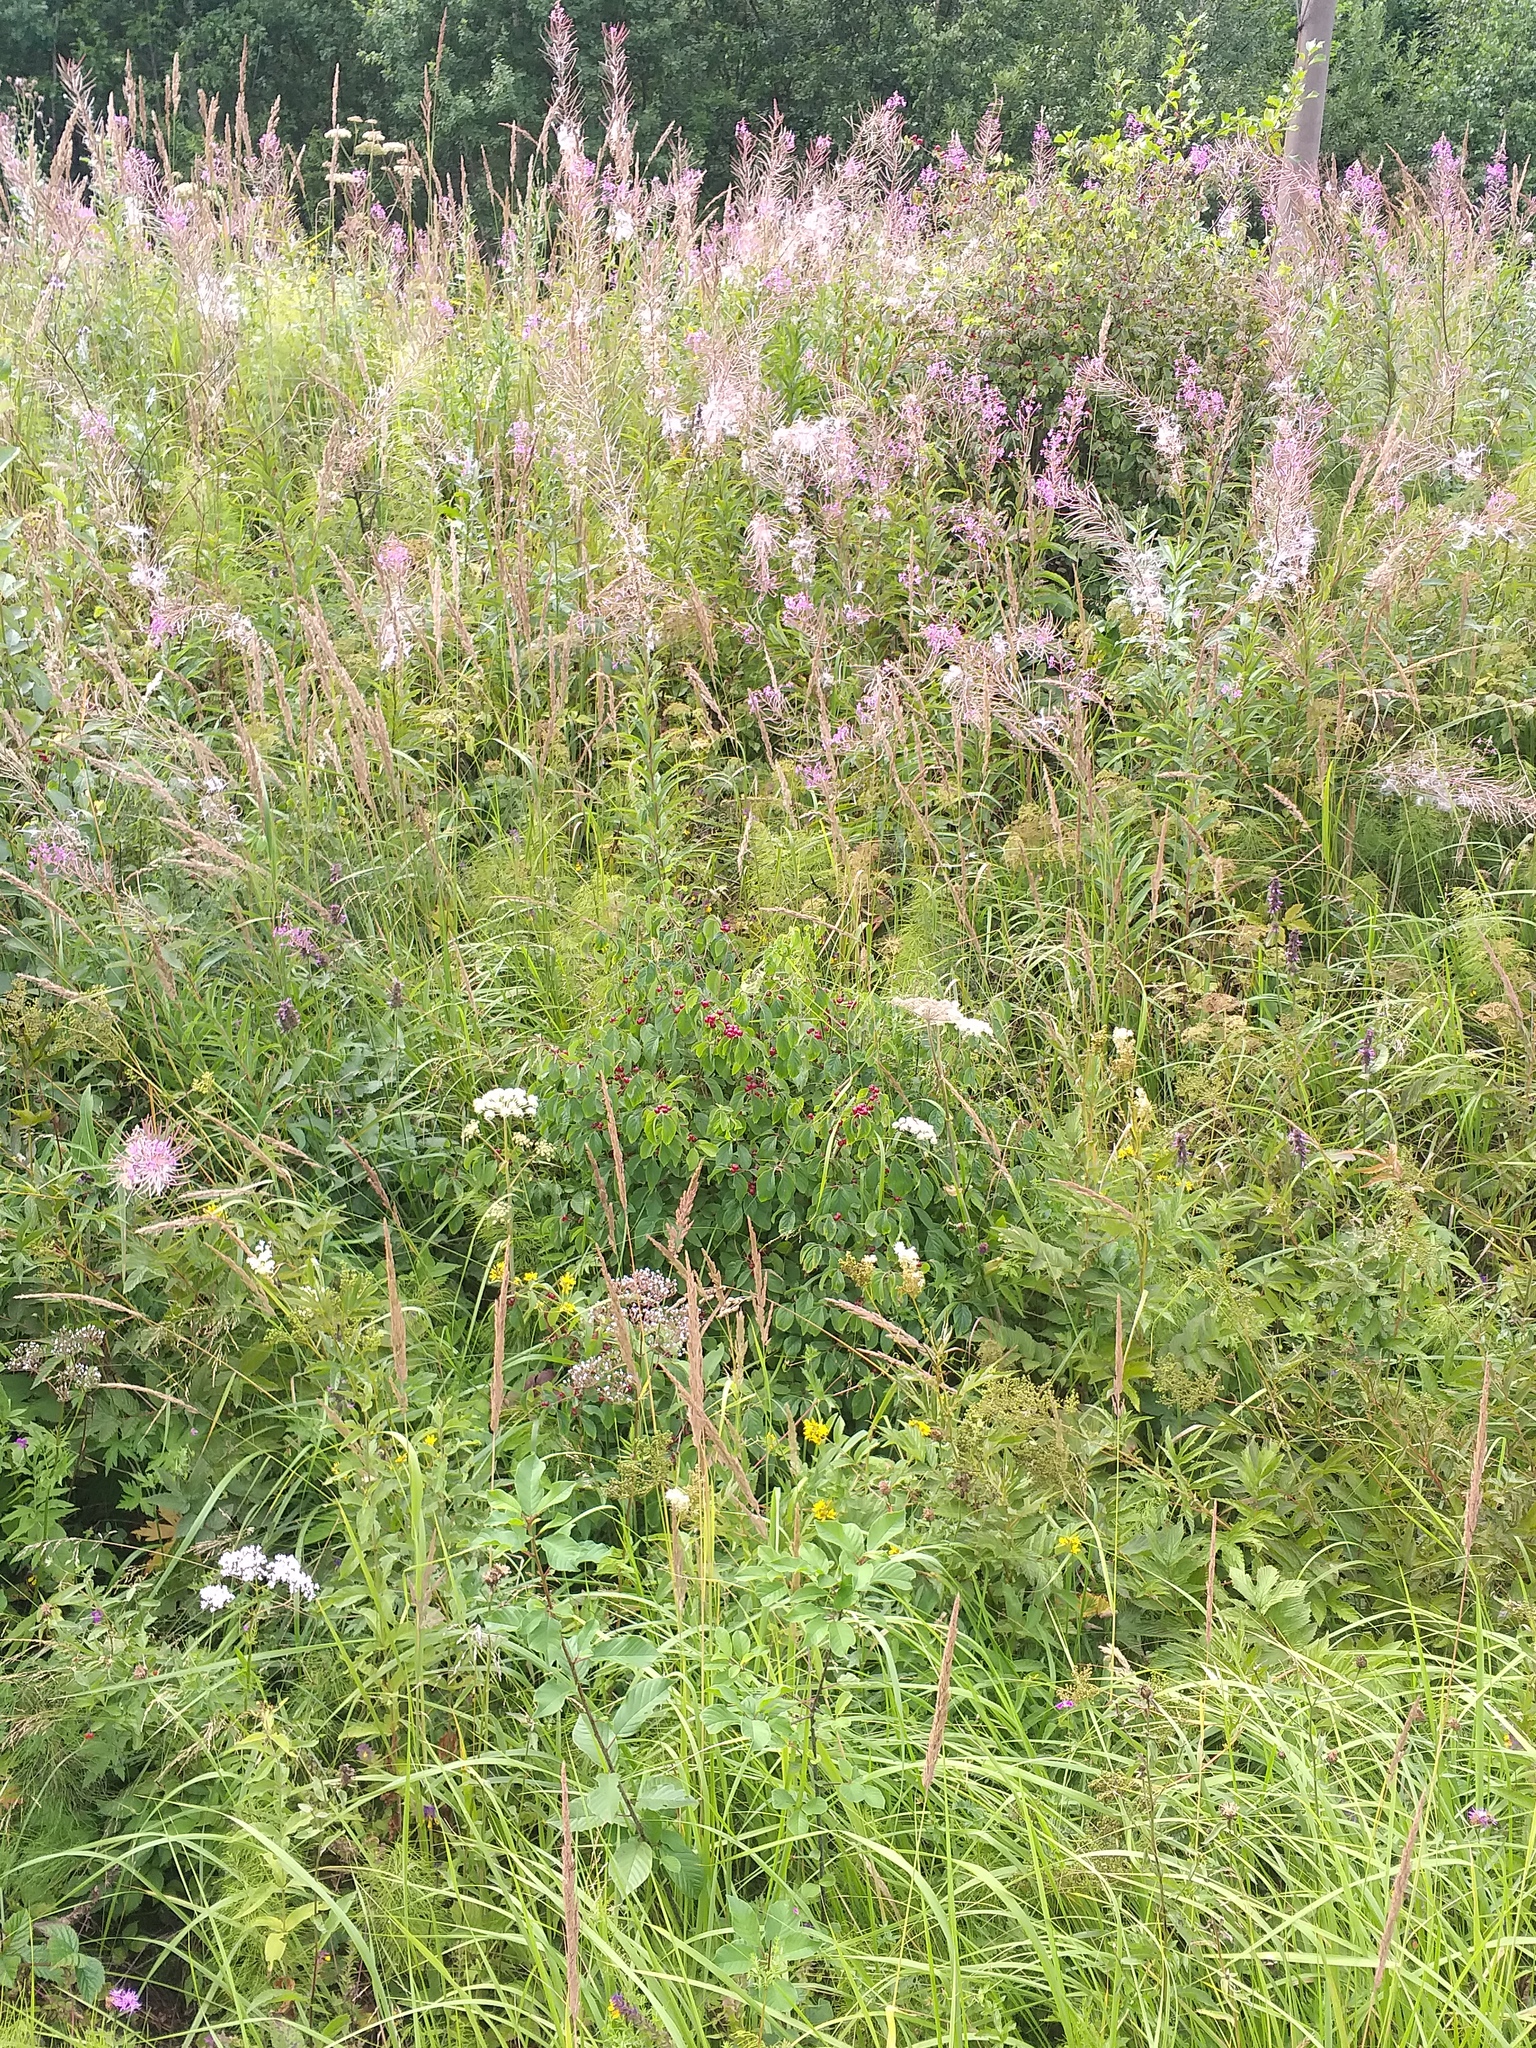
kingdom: Plantae
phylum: Tracheophyta
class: Magnoliopsida
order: Dipsacales
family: Caprifoliaceae
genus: Lonicera
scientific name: Lonicera xylosteum
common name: Fly honeysuckle
